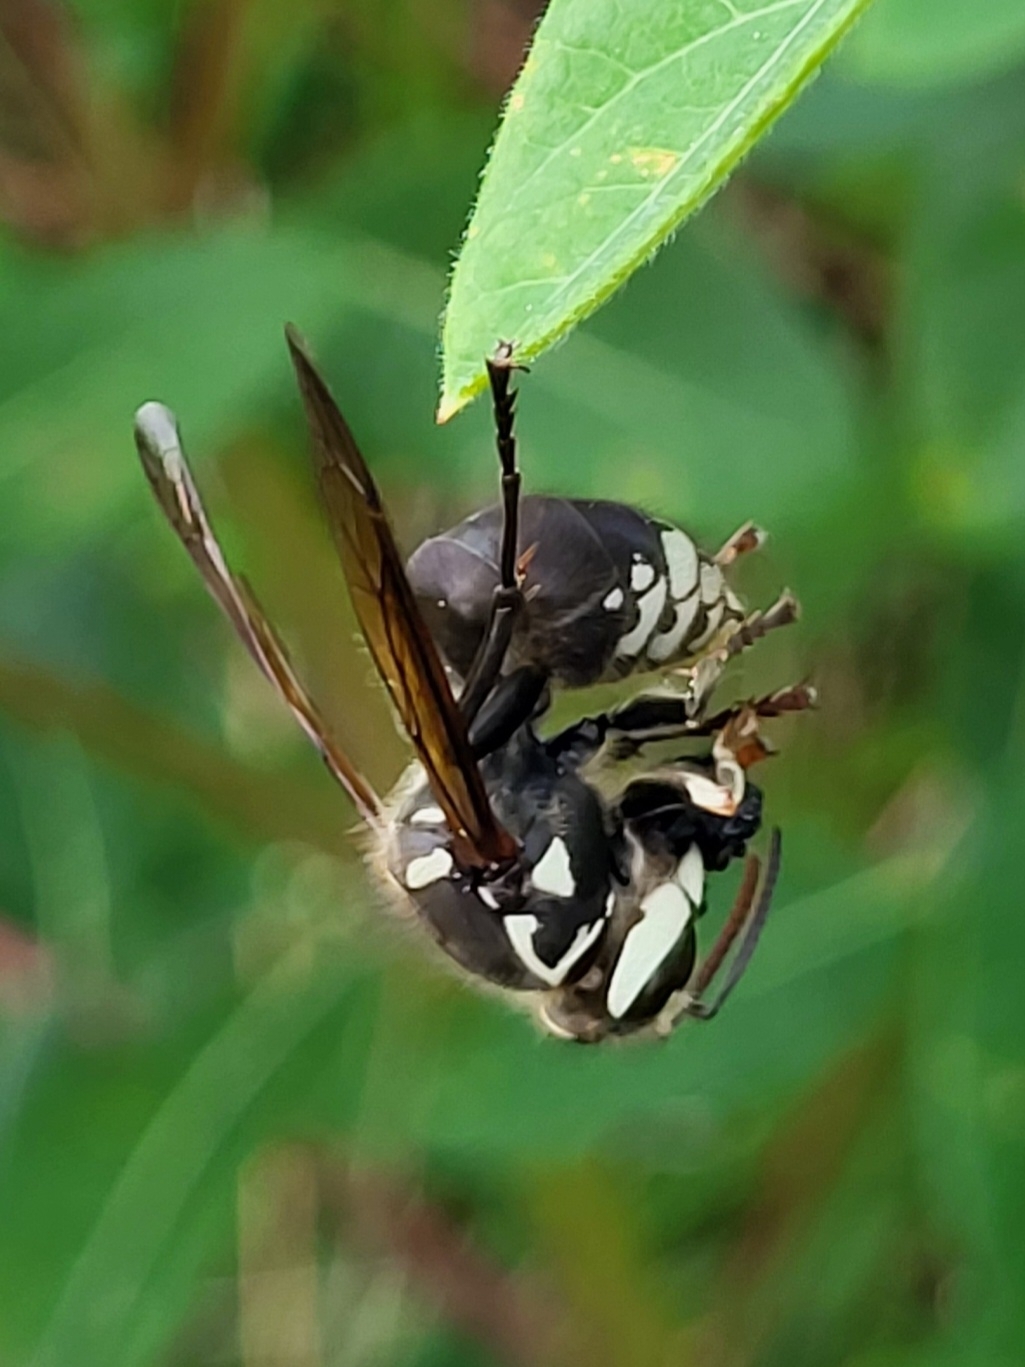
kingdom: Animalia
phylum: Arthropoda
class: Insecta
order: Hymenoptera
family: Vespidae
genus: Dolichovespula
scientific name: Dolichovespula maculata
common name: Bald-faced hornet
